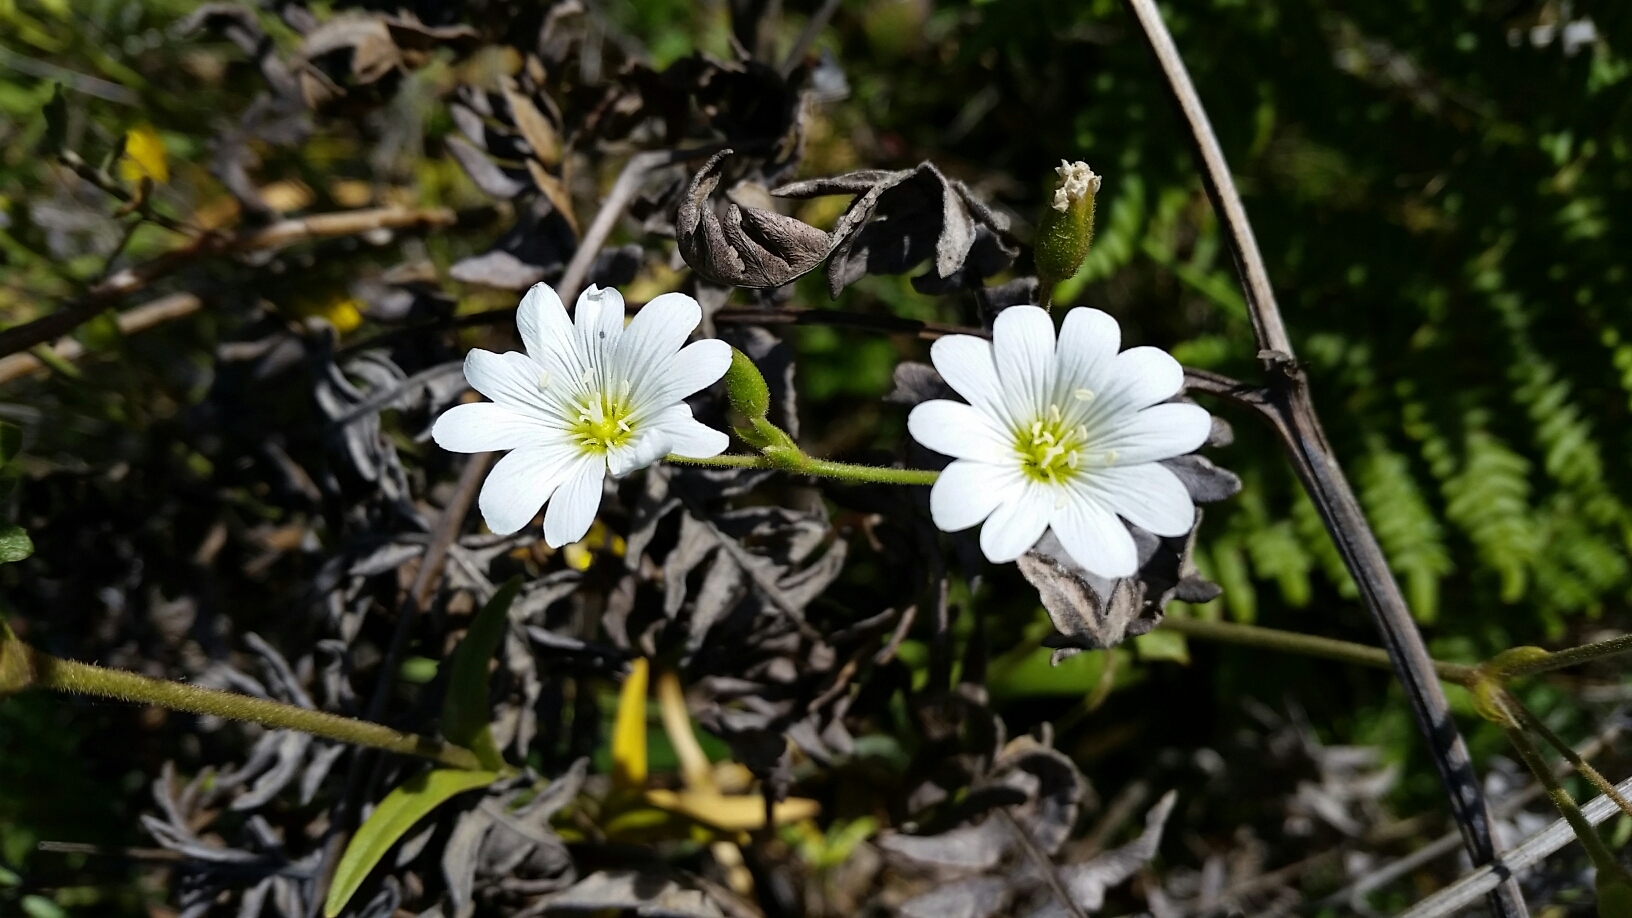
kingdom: Plantae
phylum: Tracheophyta
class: Magnoliopsida
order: Caryophyllales
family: Caryophyllaceae
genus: Cerastium
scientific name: Cerastium arvense
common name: Field mouse-ear
